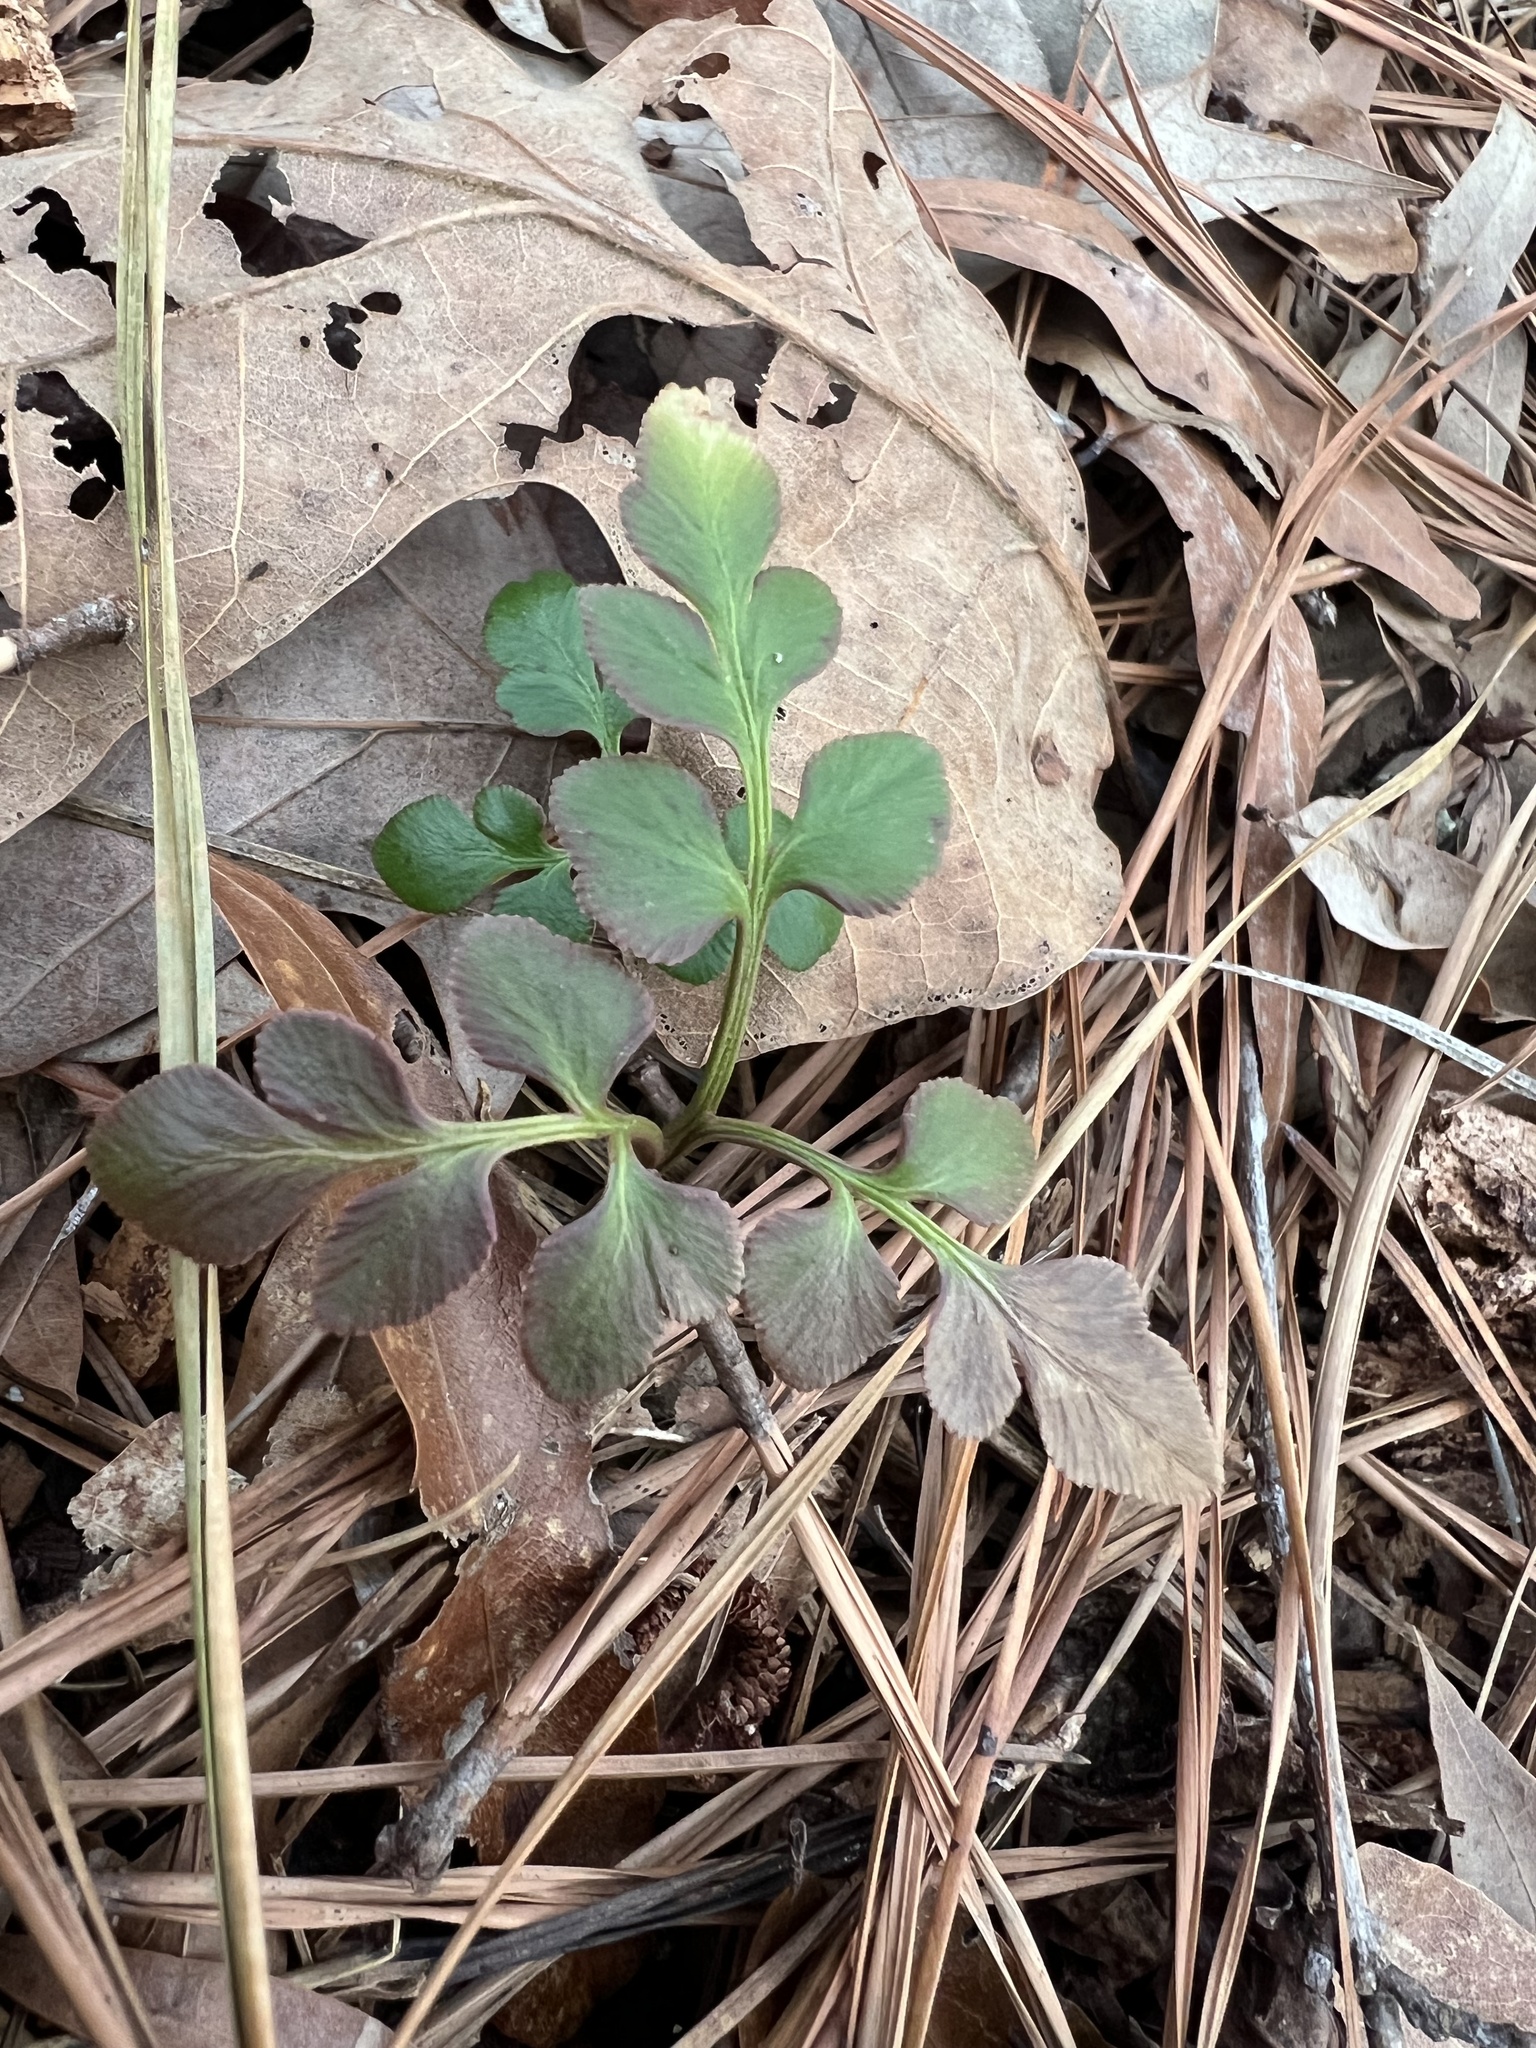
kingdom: Plantae
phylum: Tracheophyta
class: Polypodiopsida
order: Ophioglossales
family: Ophioglossaceae
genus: Sceptridium
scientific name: Sceptridium biternatum
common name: Sparse-lobed grapefern
